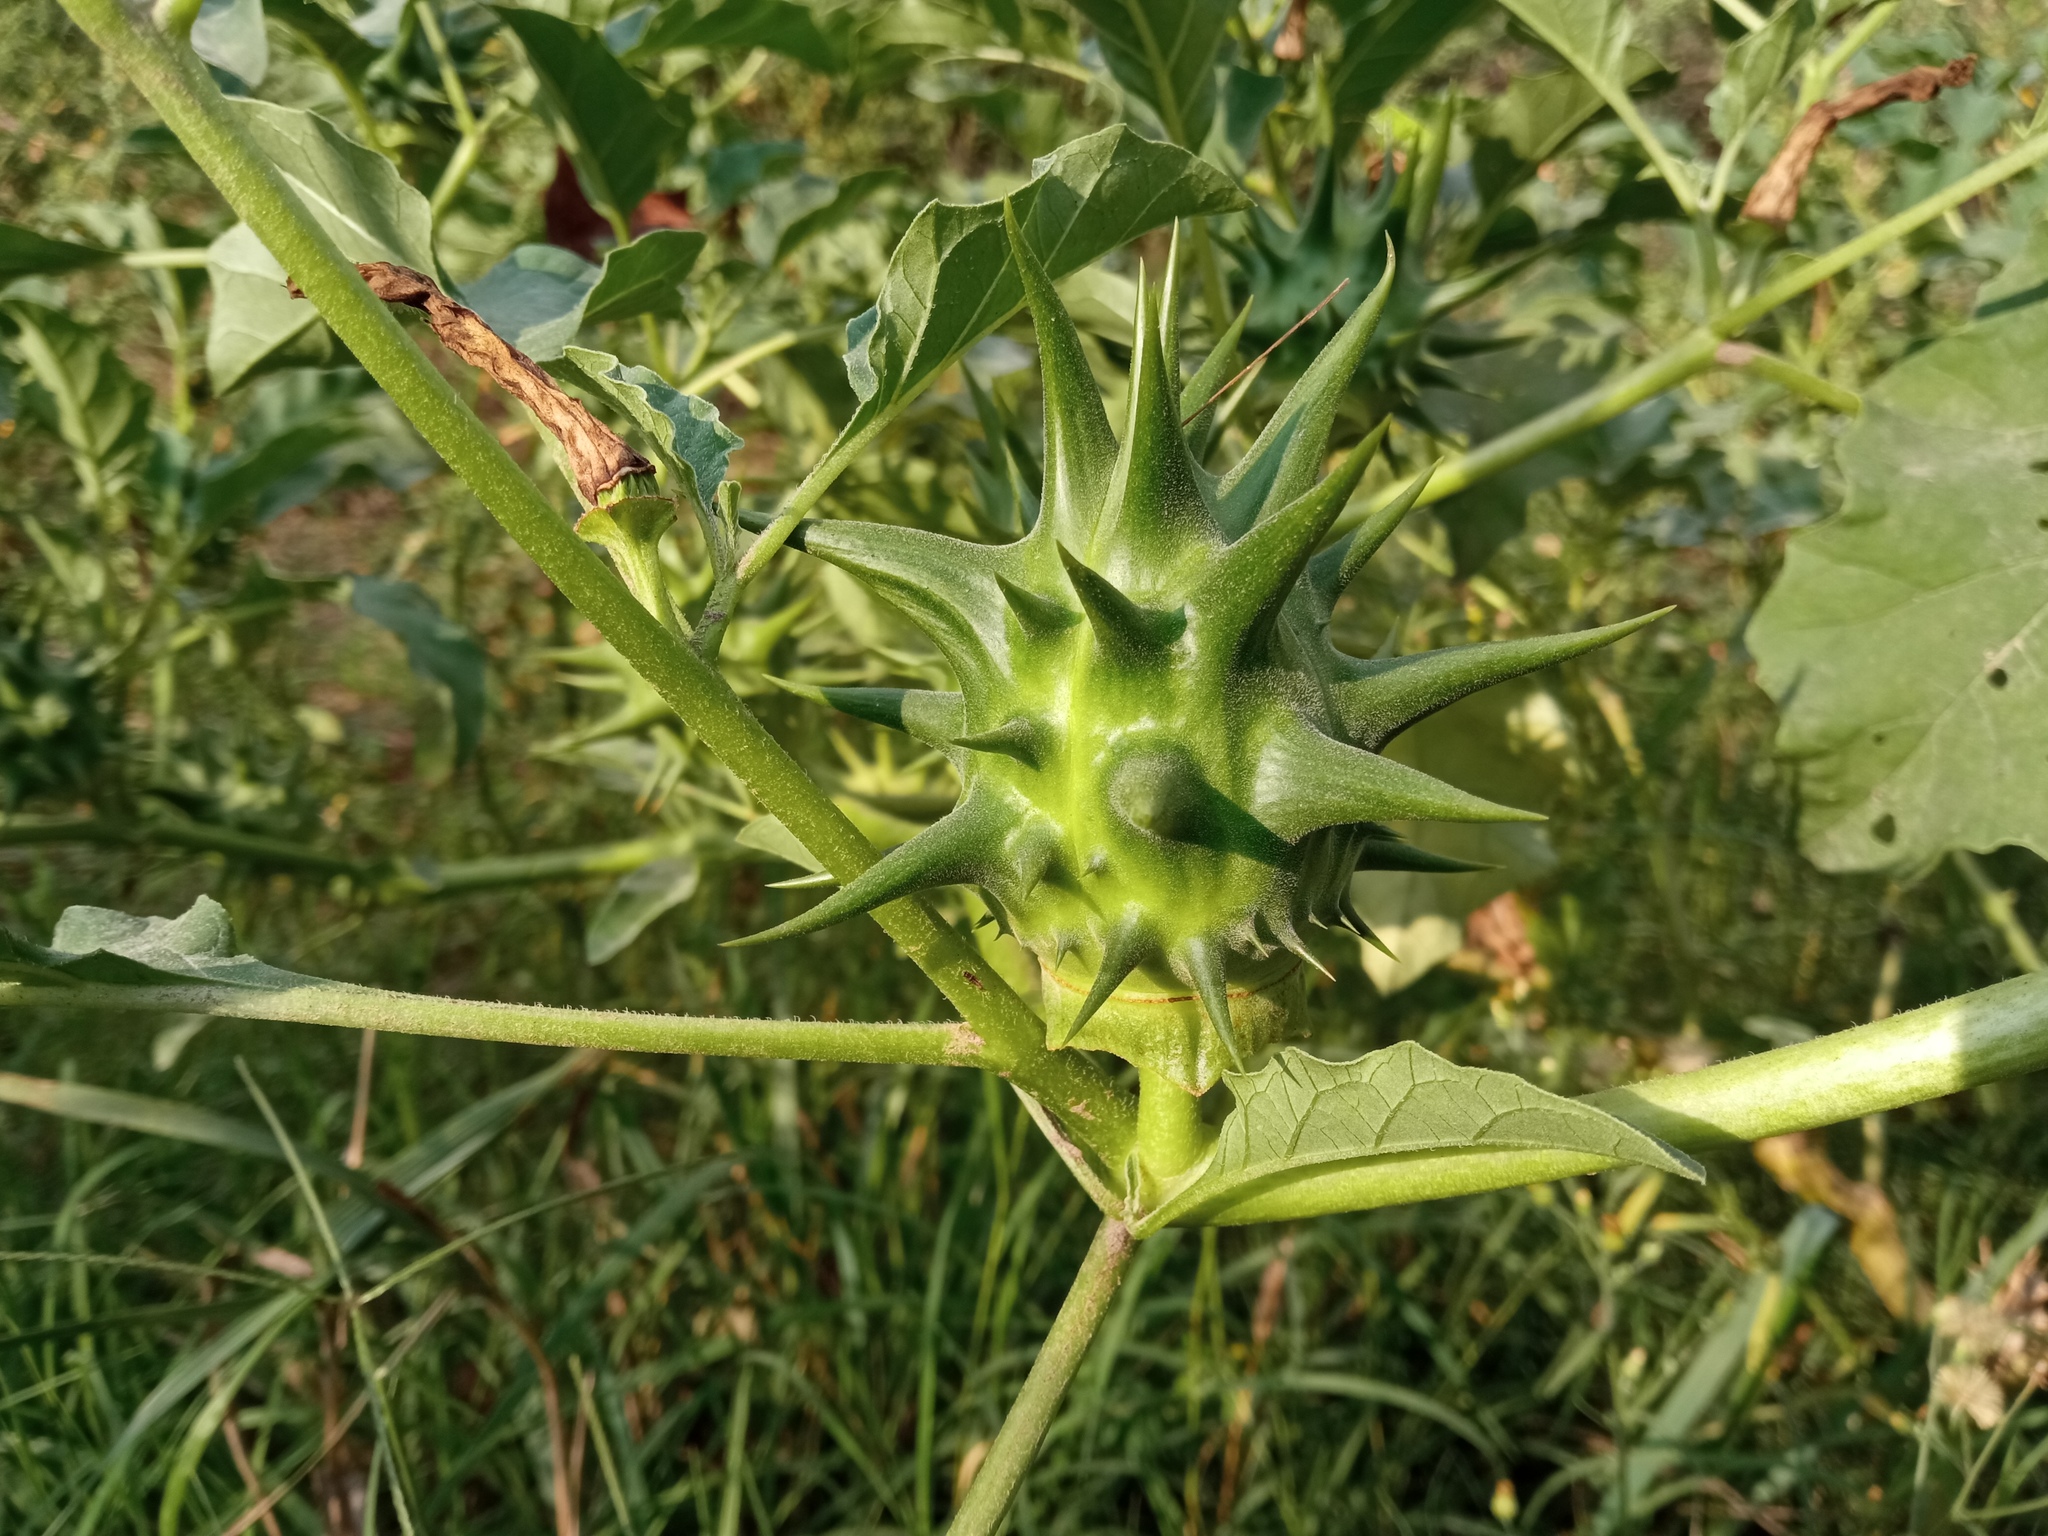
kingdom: Plantae
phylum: Tracheophyta
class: Magnoliopsida
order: Solanales
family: Solanaceae
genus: Datura
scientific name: Datura ferox
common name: Angel's-trumpets
